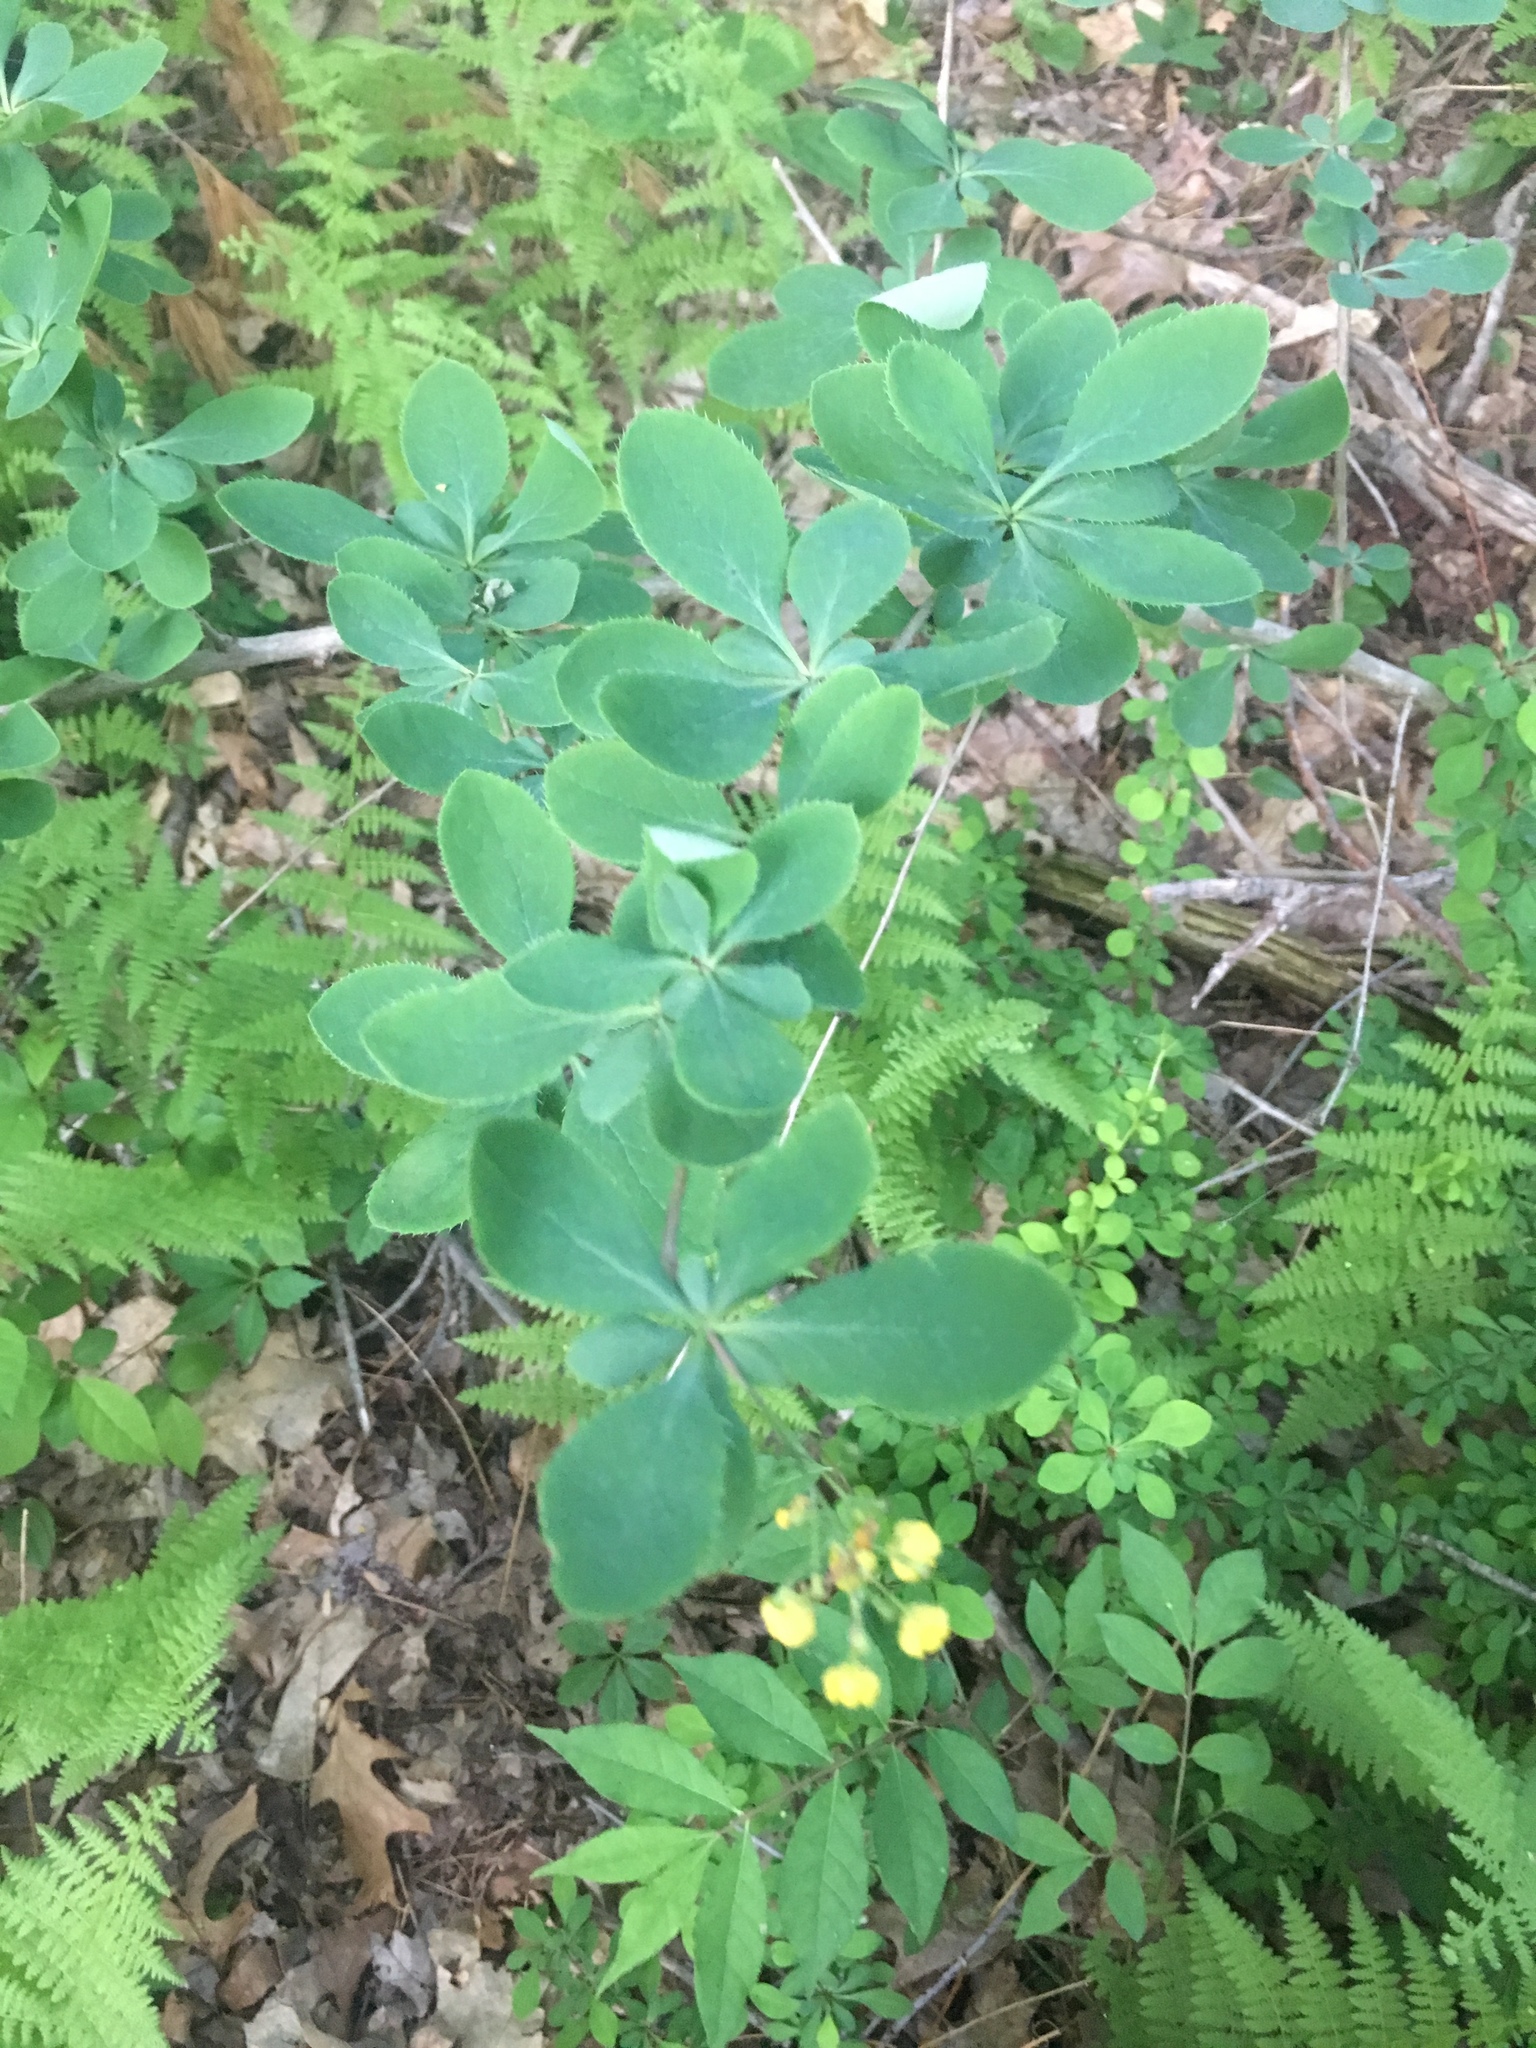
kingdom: Plantae
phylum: Tracheophyta
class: Magnoliopsida
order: Ranunculales
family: Berberidaceae
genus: Berberis
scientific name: Berberis vulgaris
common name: Barberry
